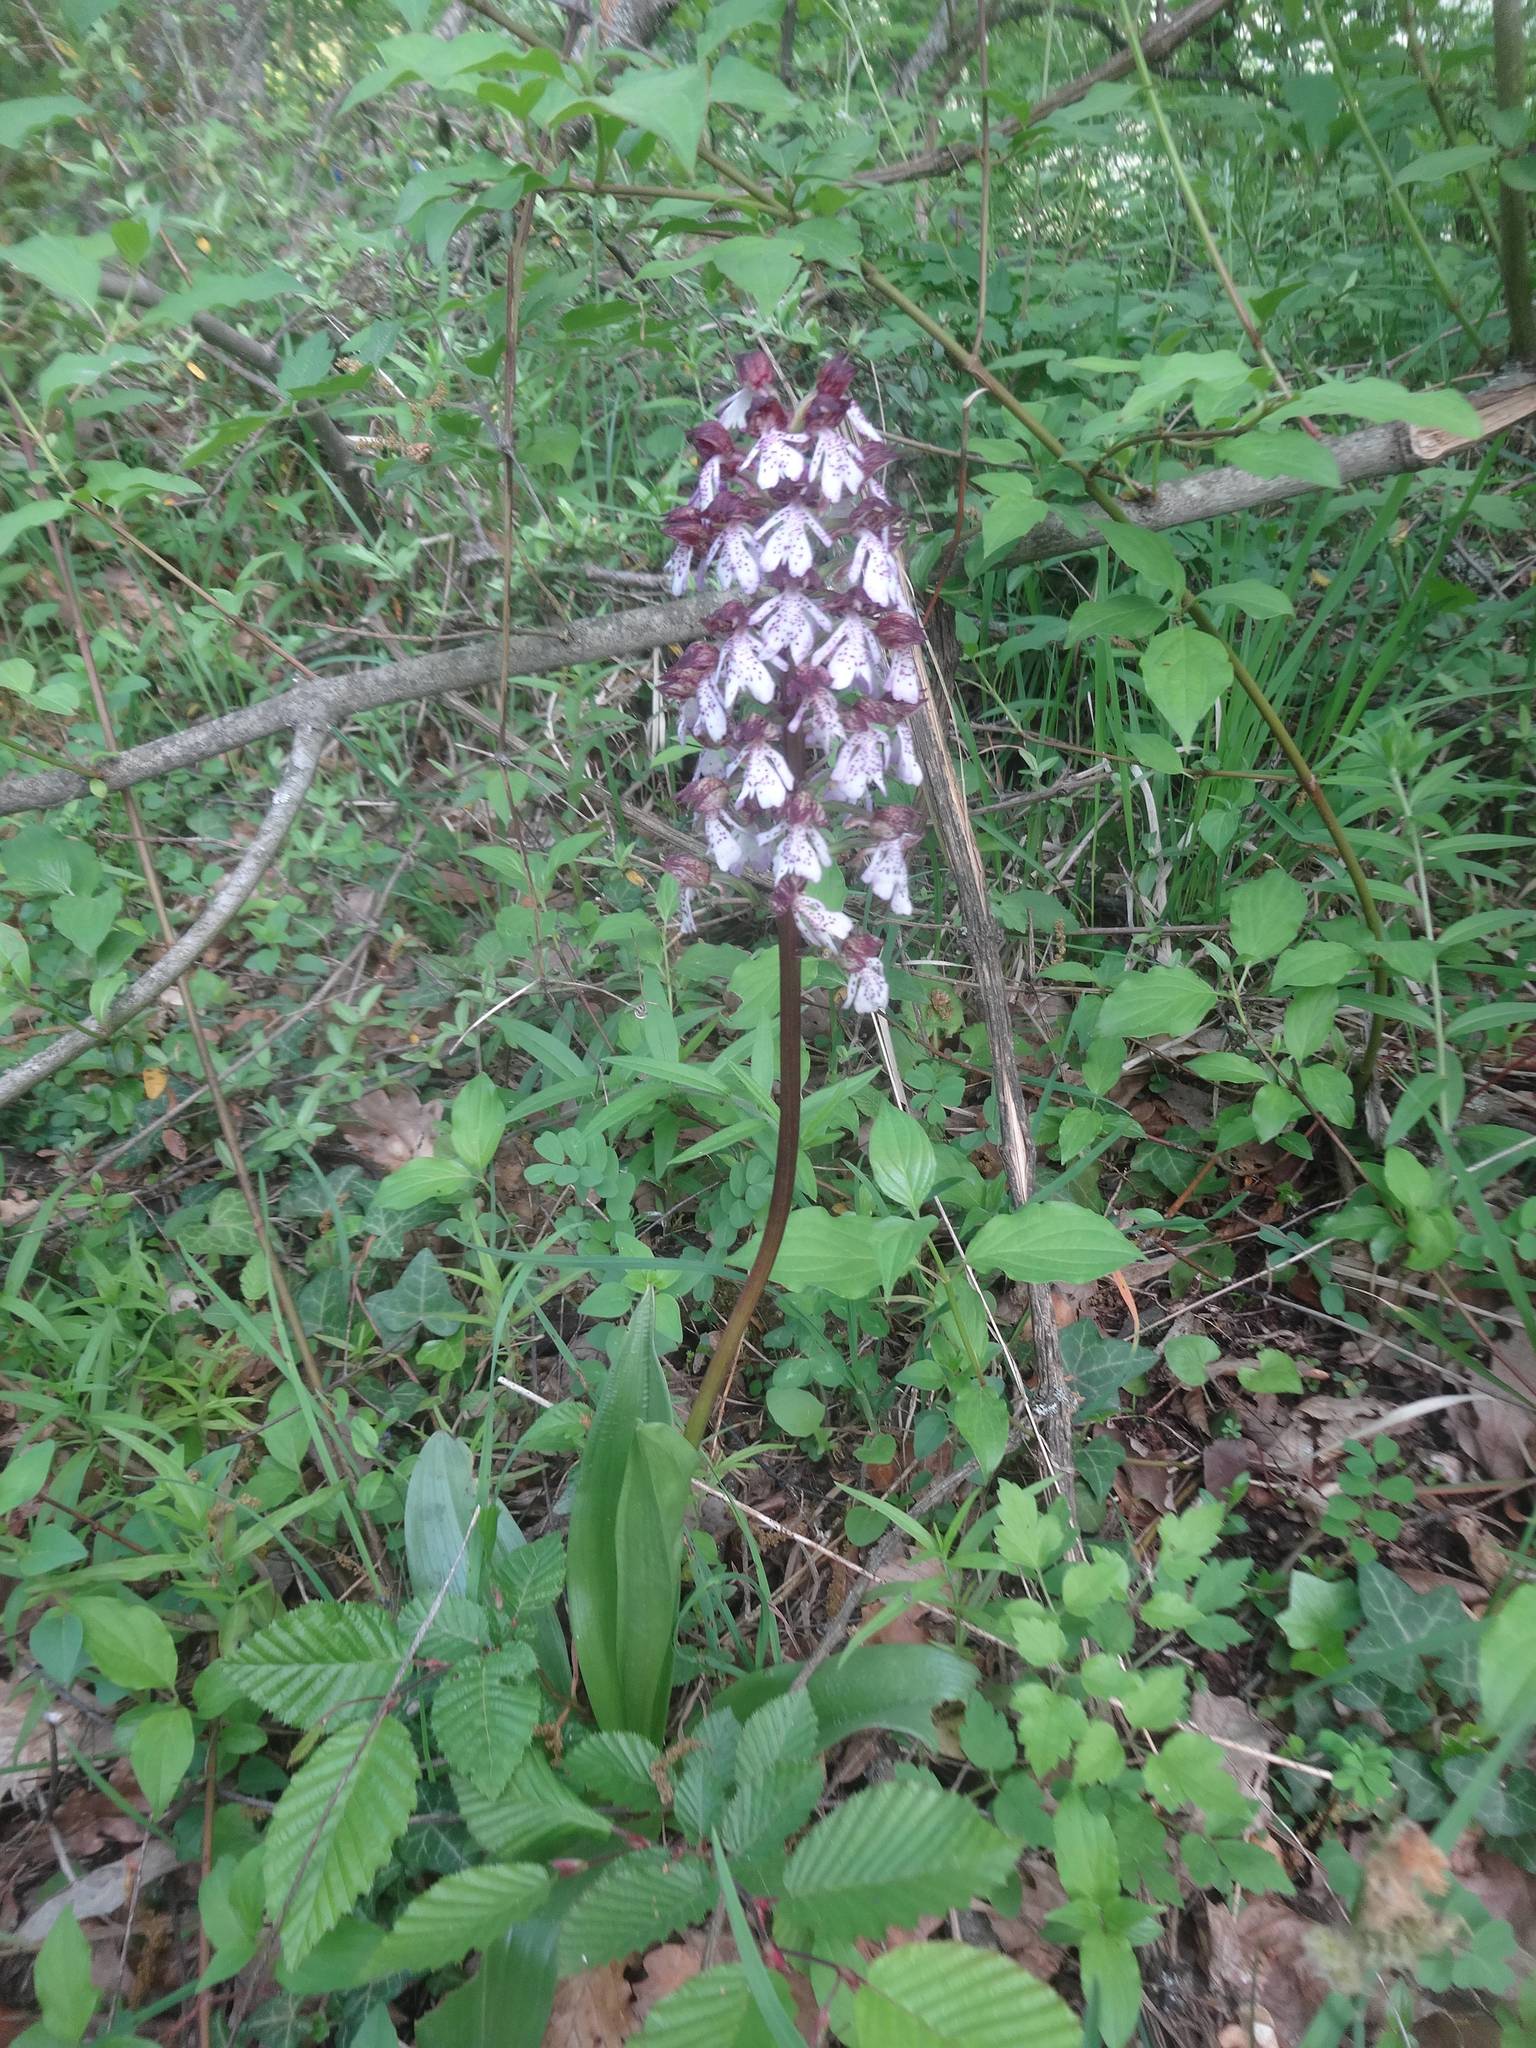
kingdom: Plantae
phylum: Tracheophyta
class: Liliopsida
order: Asparagales
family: Orchidaceae
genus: Orchis
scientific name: Orchis purpurea
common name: Lady orchid
